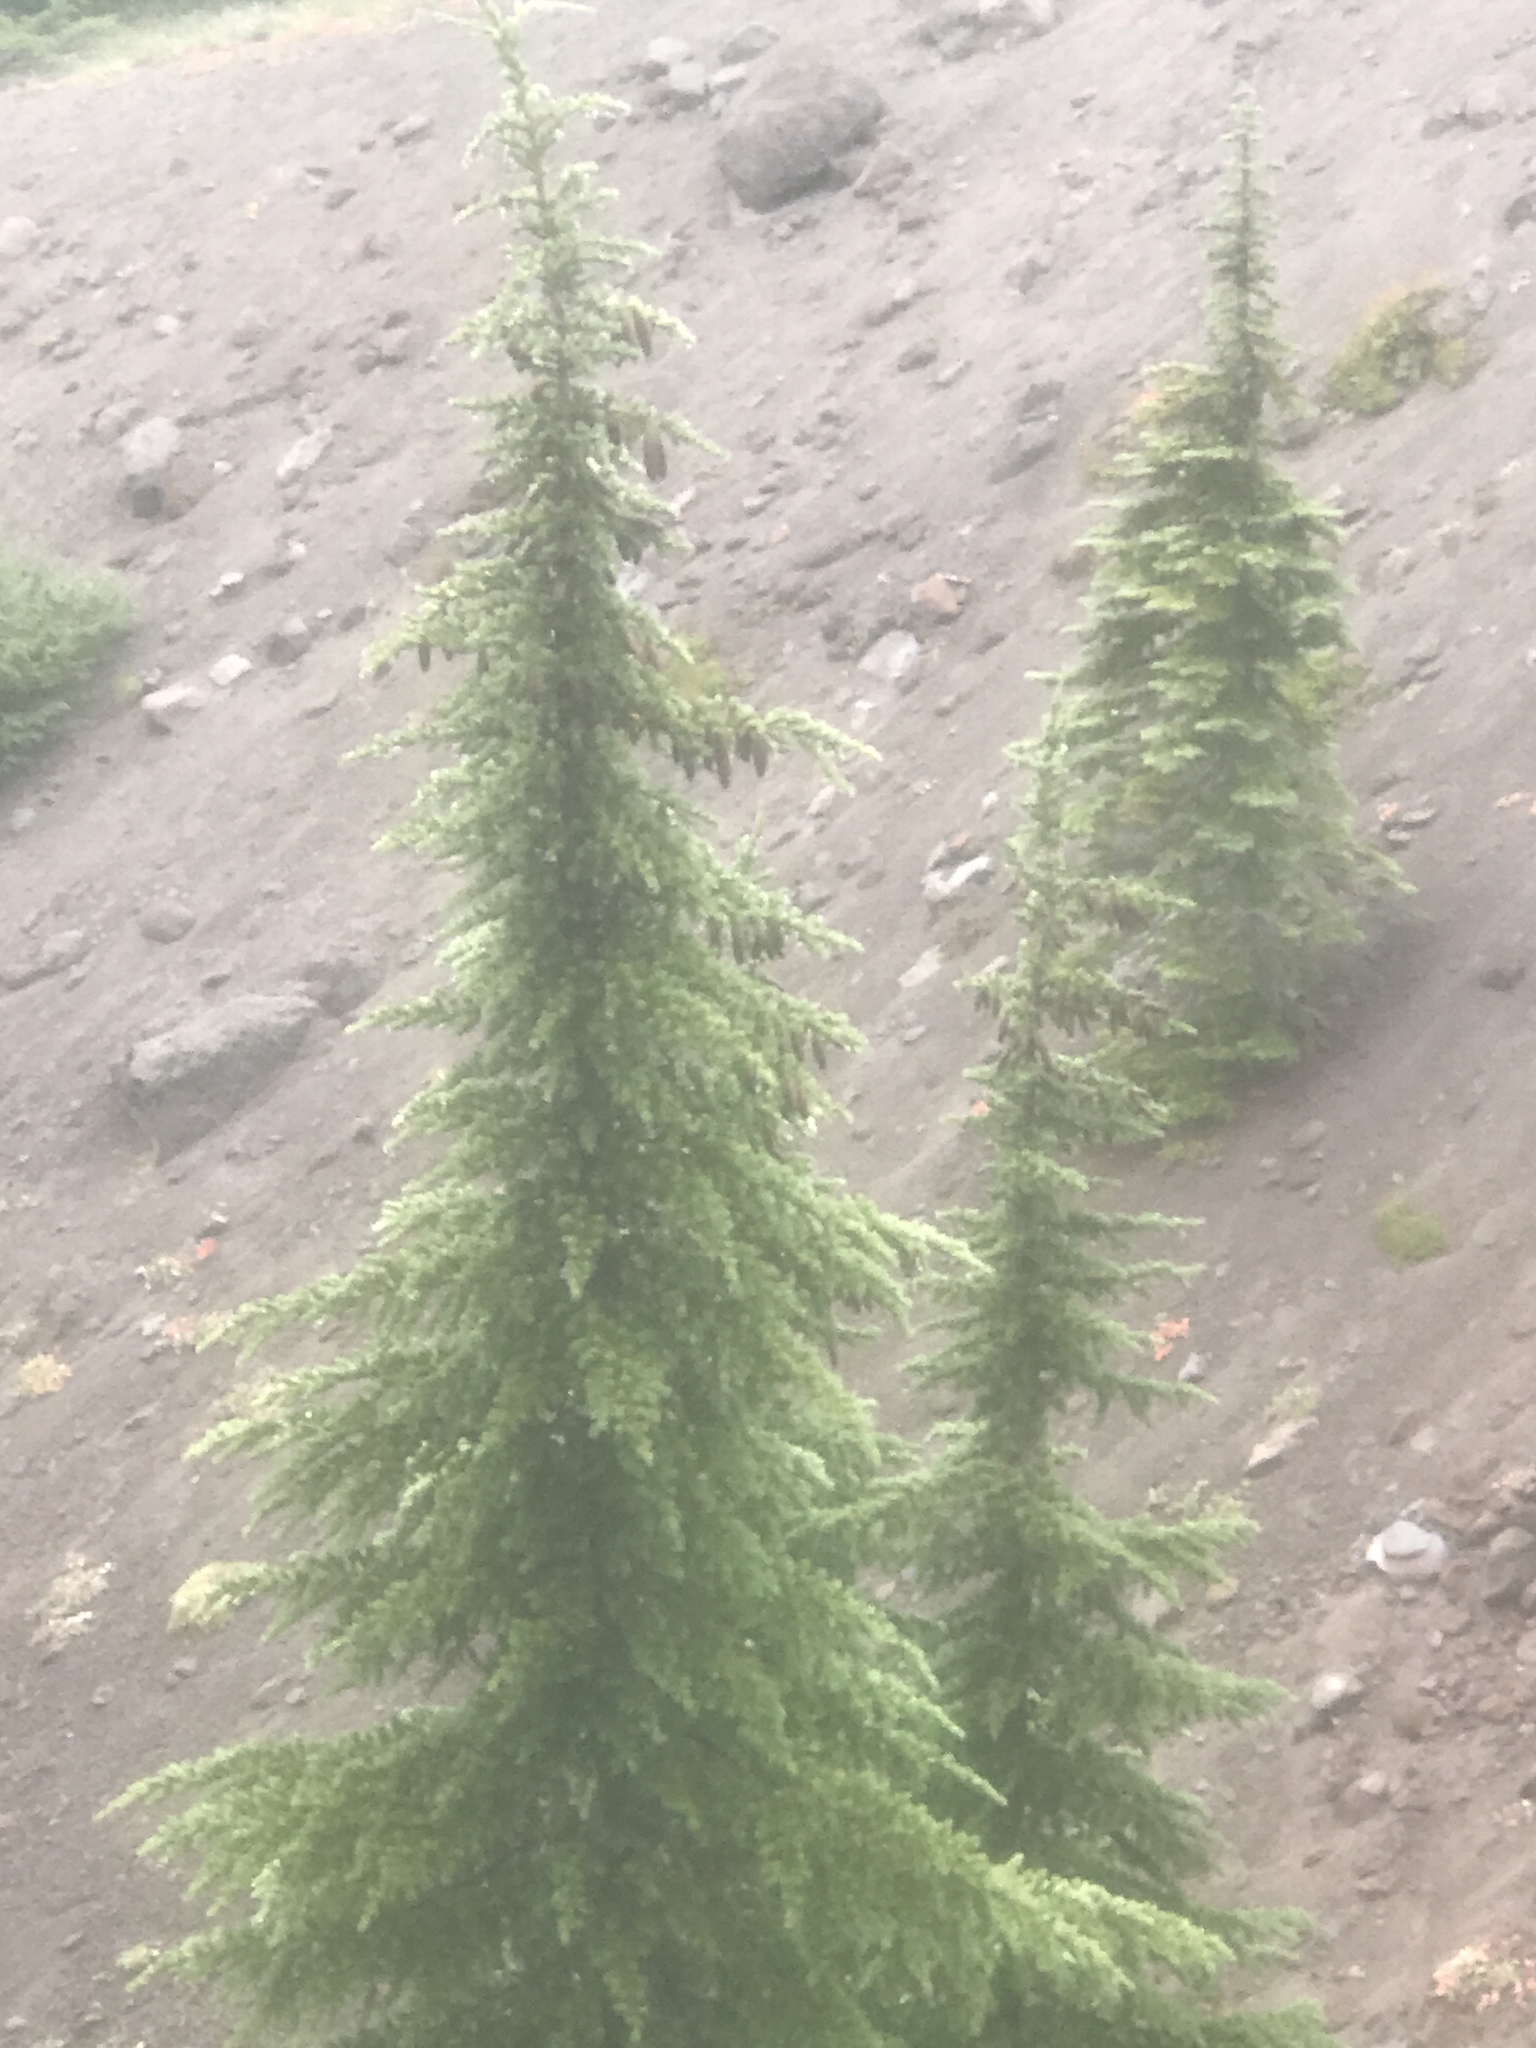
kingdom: Plantae
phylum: Tracheophyta
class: Pinopsida
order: Pinales
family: Pinaceae
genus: Tsuga
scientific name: Tsuga mertensiana
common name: Mountain hemlock
